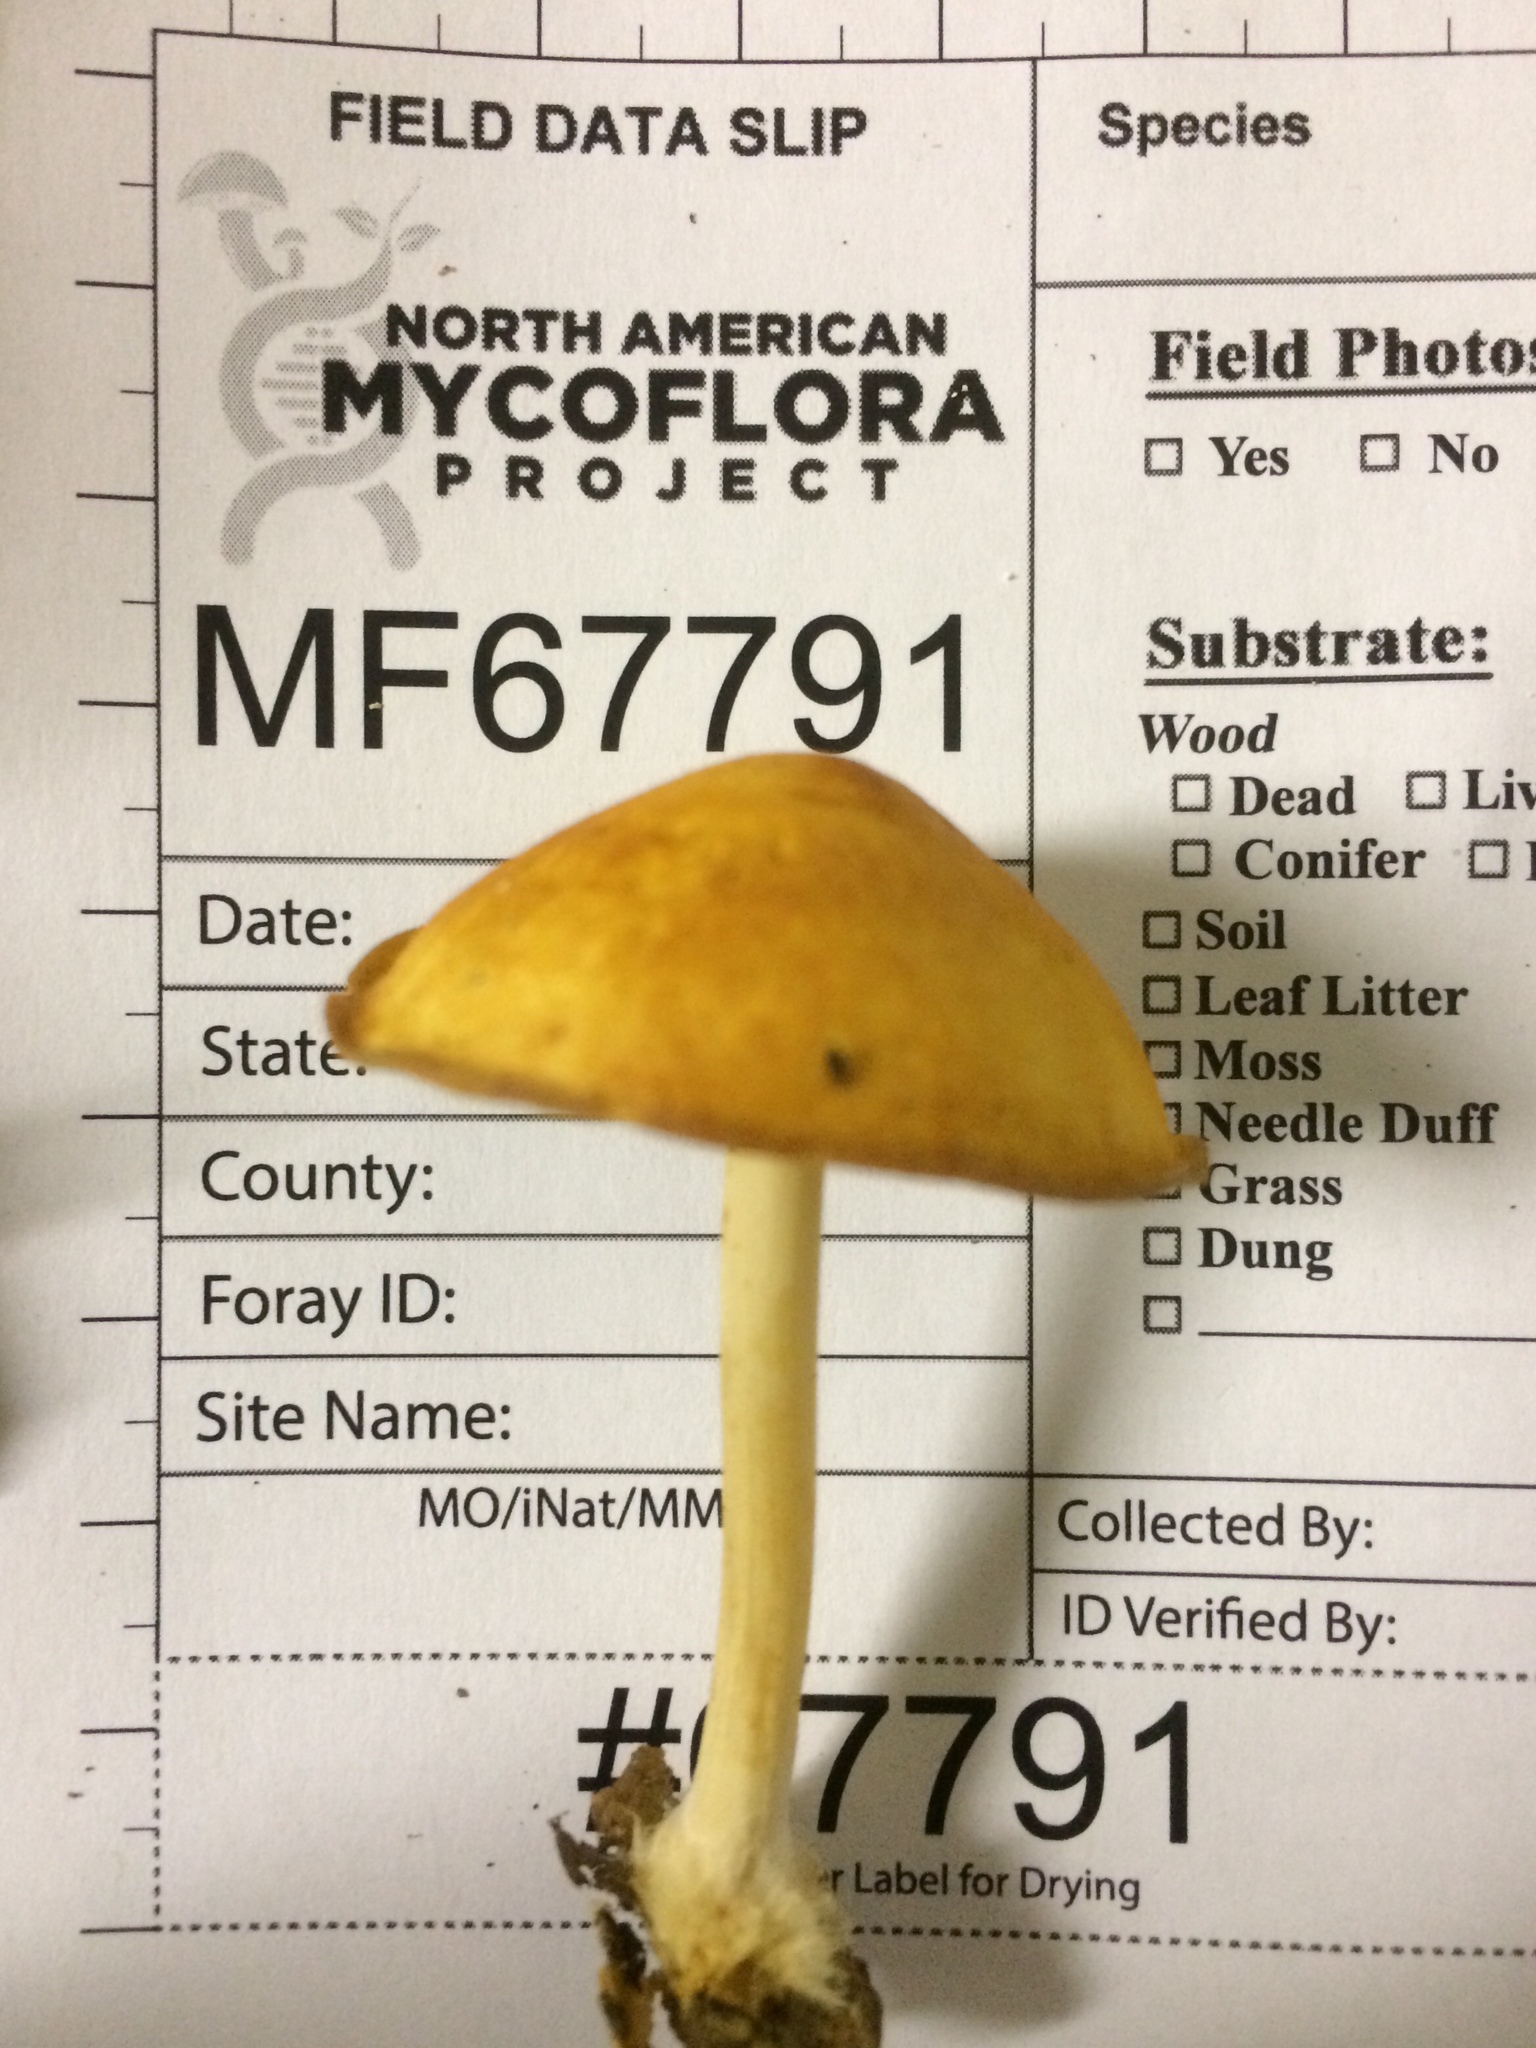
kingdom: Fungi
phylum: Basidiomycota
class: Agaricomycetes
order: Agaricales
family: Marasmiaceae
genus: Marasmius
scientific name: Marasmius strictipes
